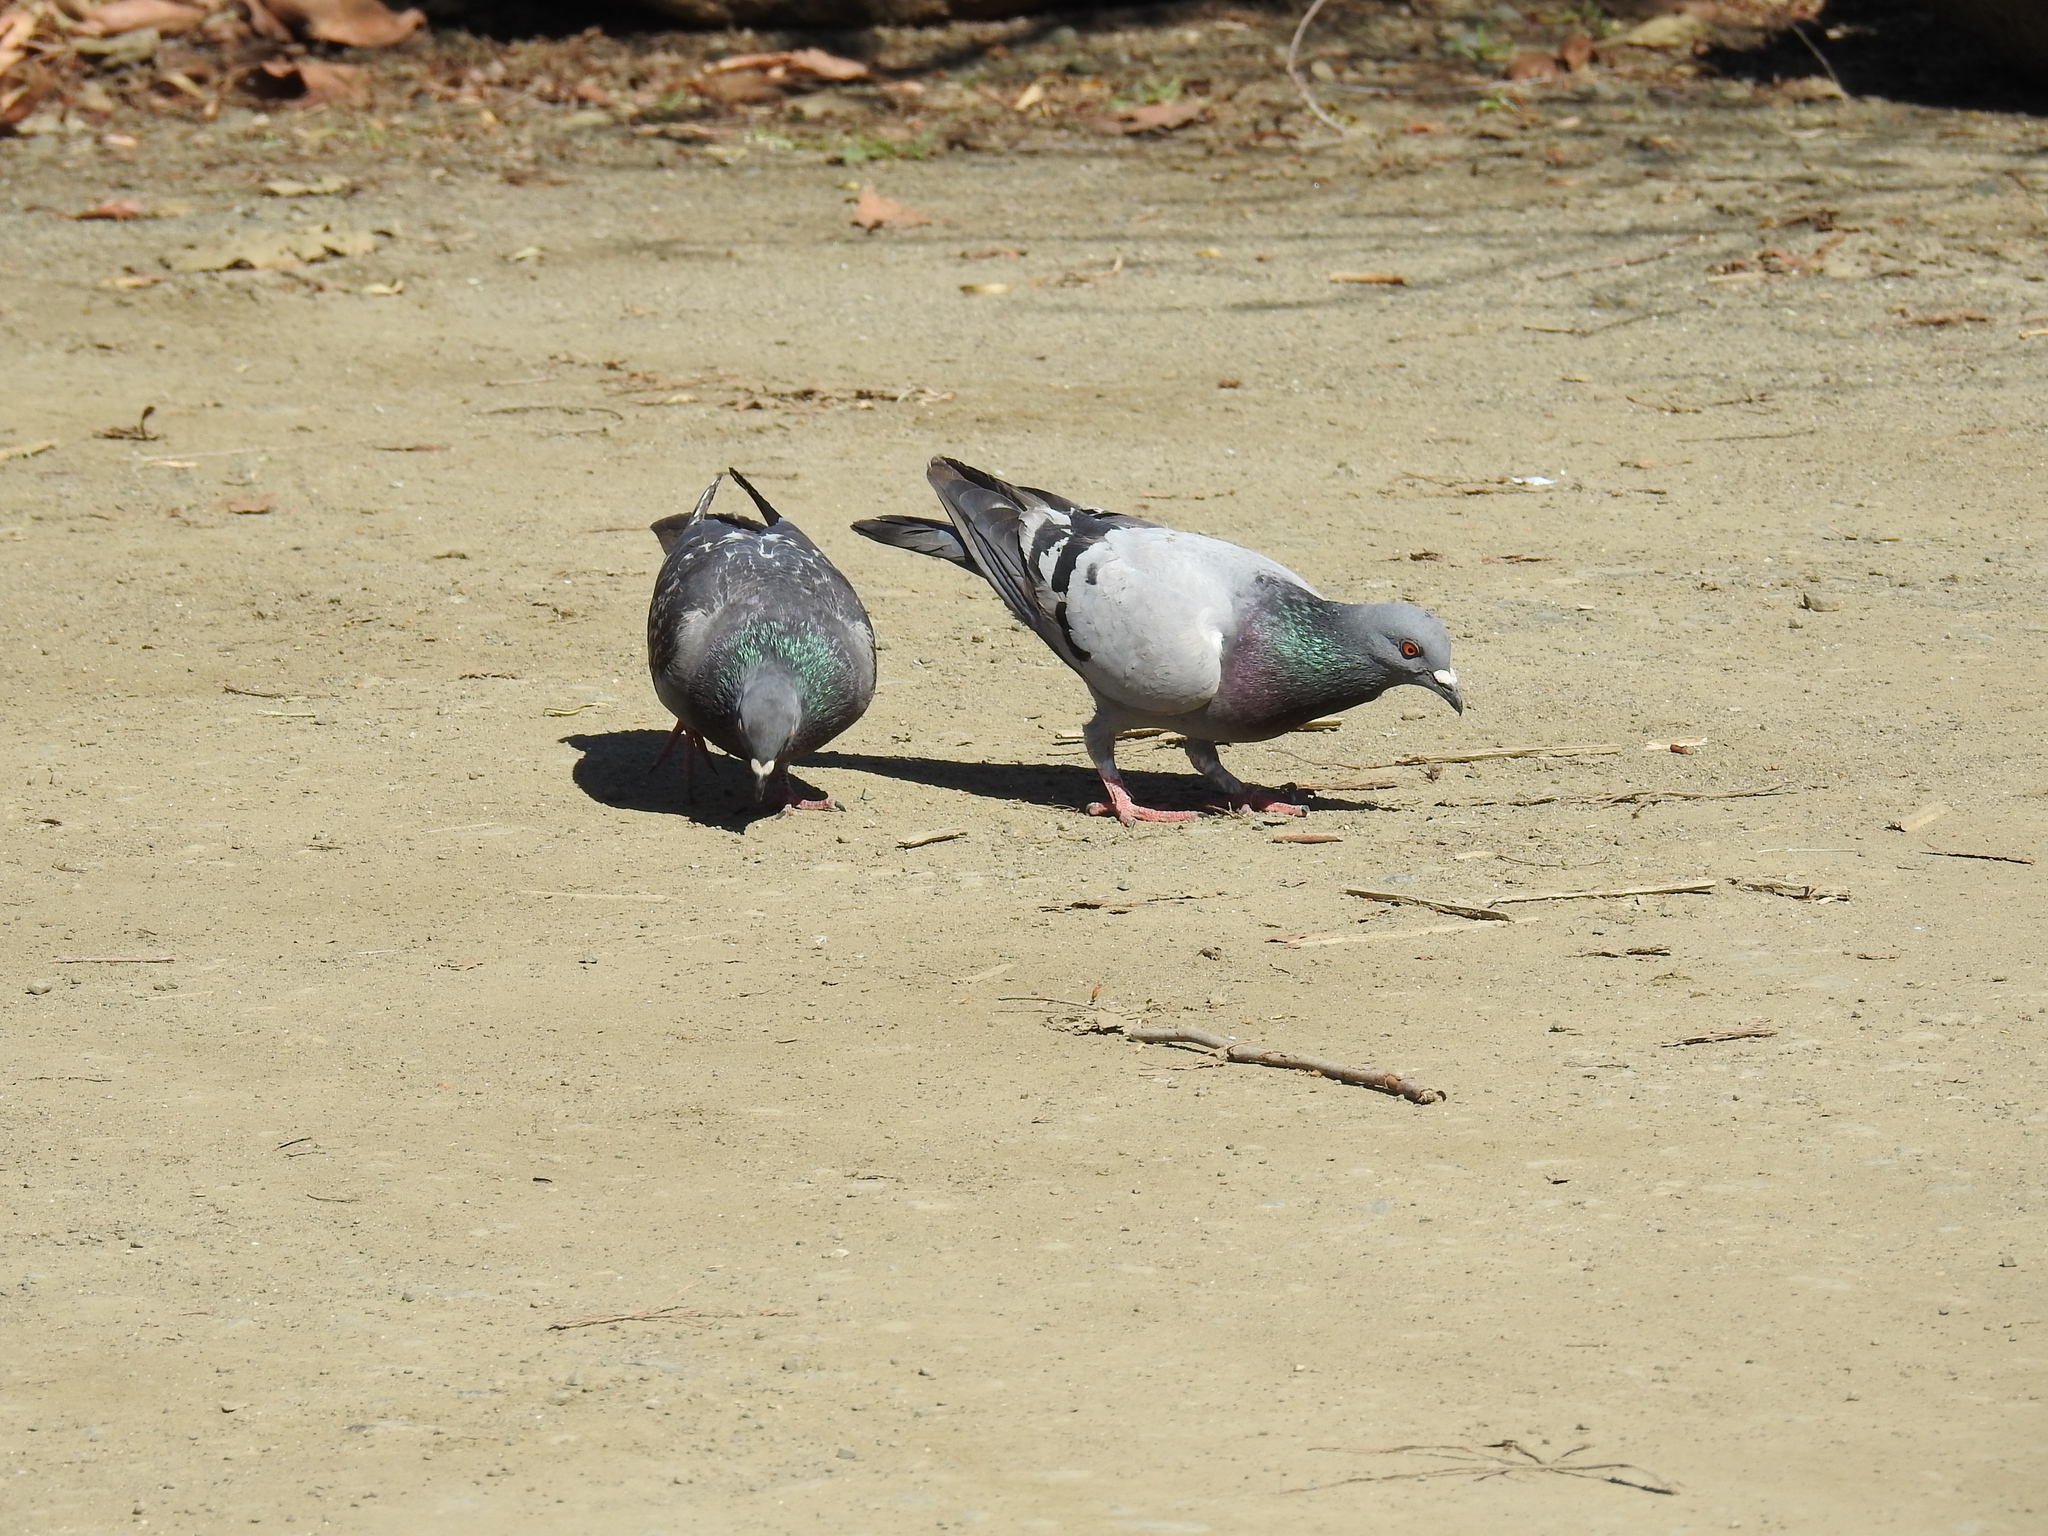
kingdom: Animalia
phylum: Chordata
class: Aves
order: Columbiformes
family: Columbidae
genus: Columba
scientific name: Columba livia
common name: Rock pigeon
